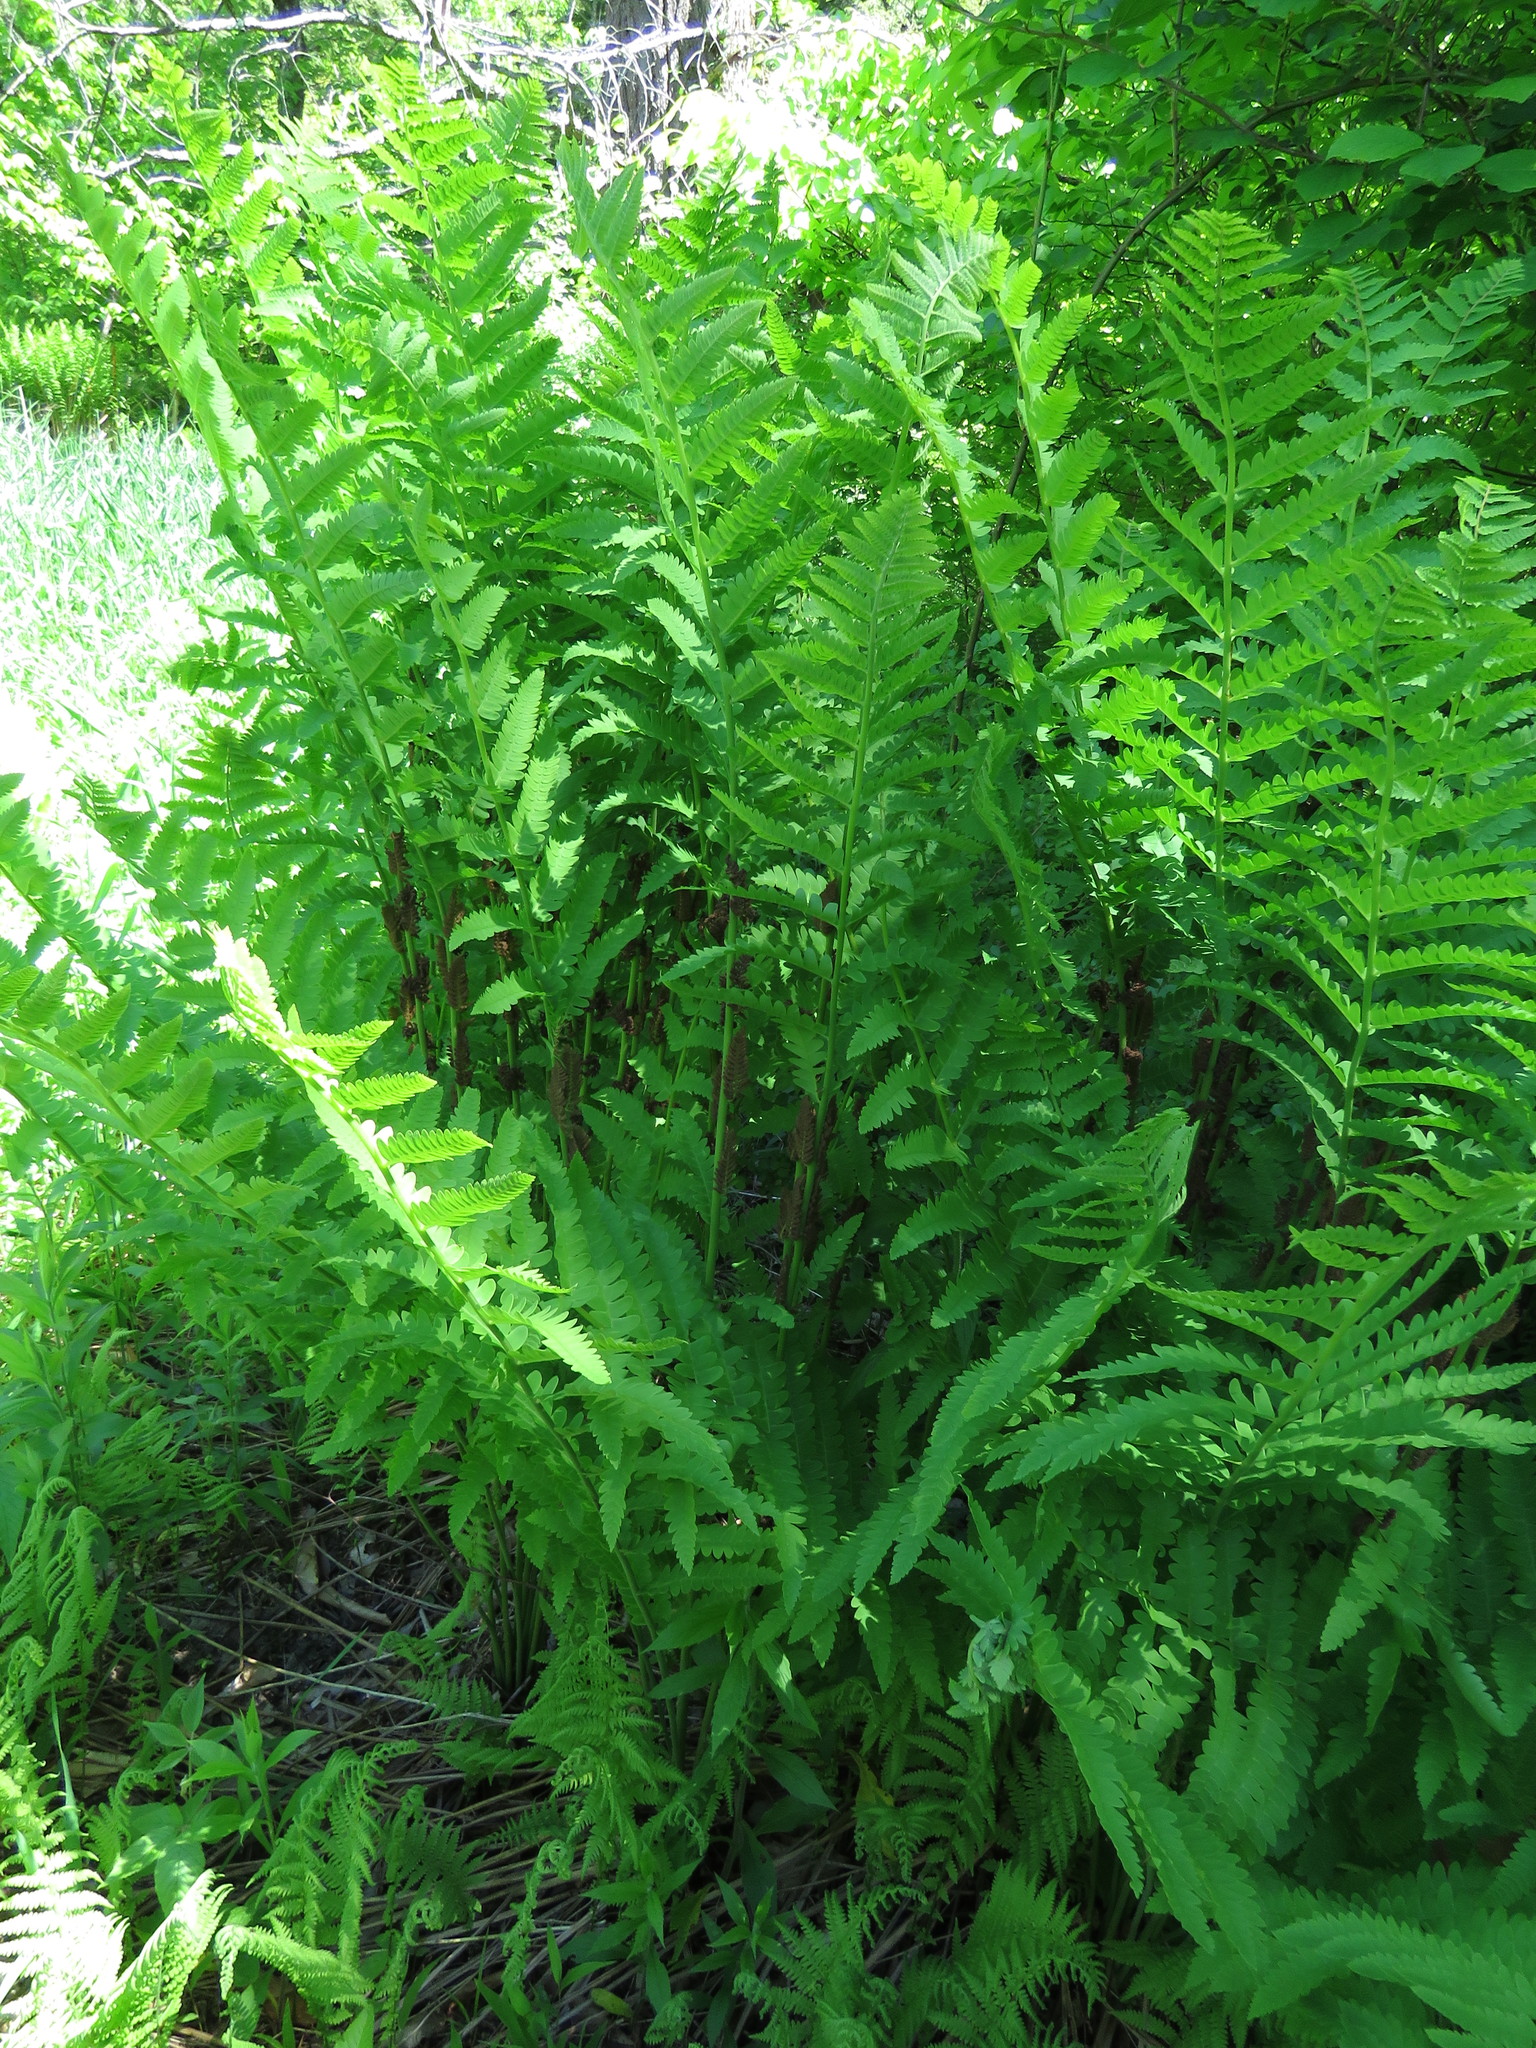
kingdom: Plantae
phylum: Tracheophyta
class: Polypodiopsida
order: Osmundales
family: Osmundaceae
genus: Claytosmunda
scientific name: Claytosmunda claytoniana
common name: Clayton's fern
